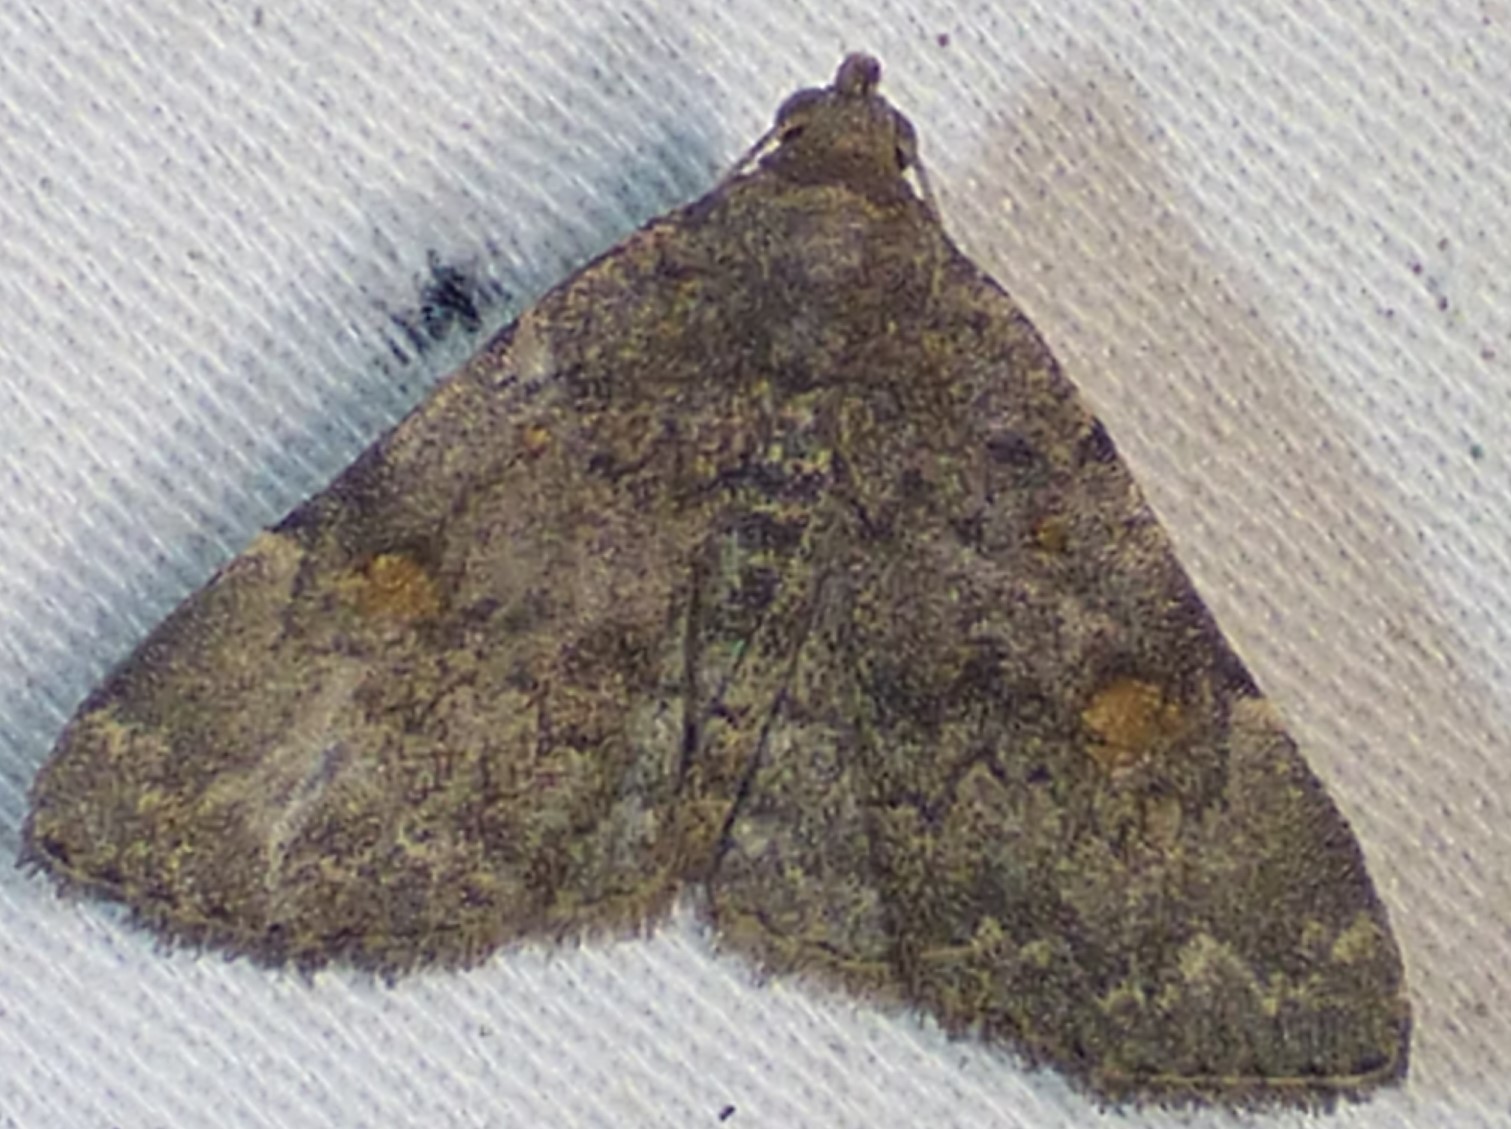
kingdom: Animalia
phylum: Arthropoda
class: Insecta
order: Lepidoptera
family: Erebidae
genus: Idia
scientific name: Idia aemula
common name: Common idia moth
